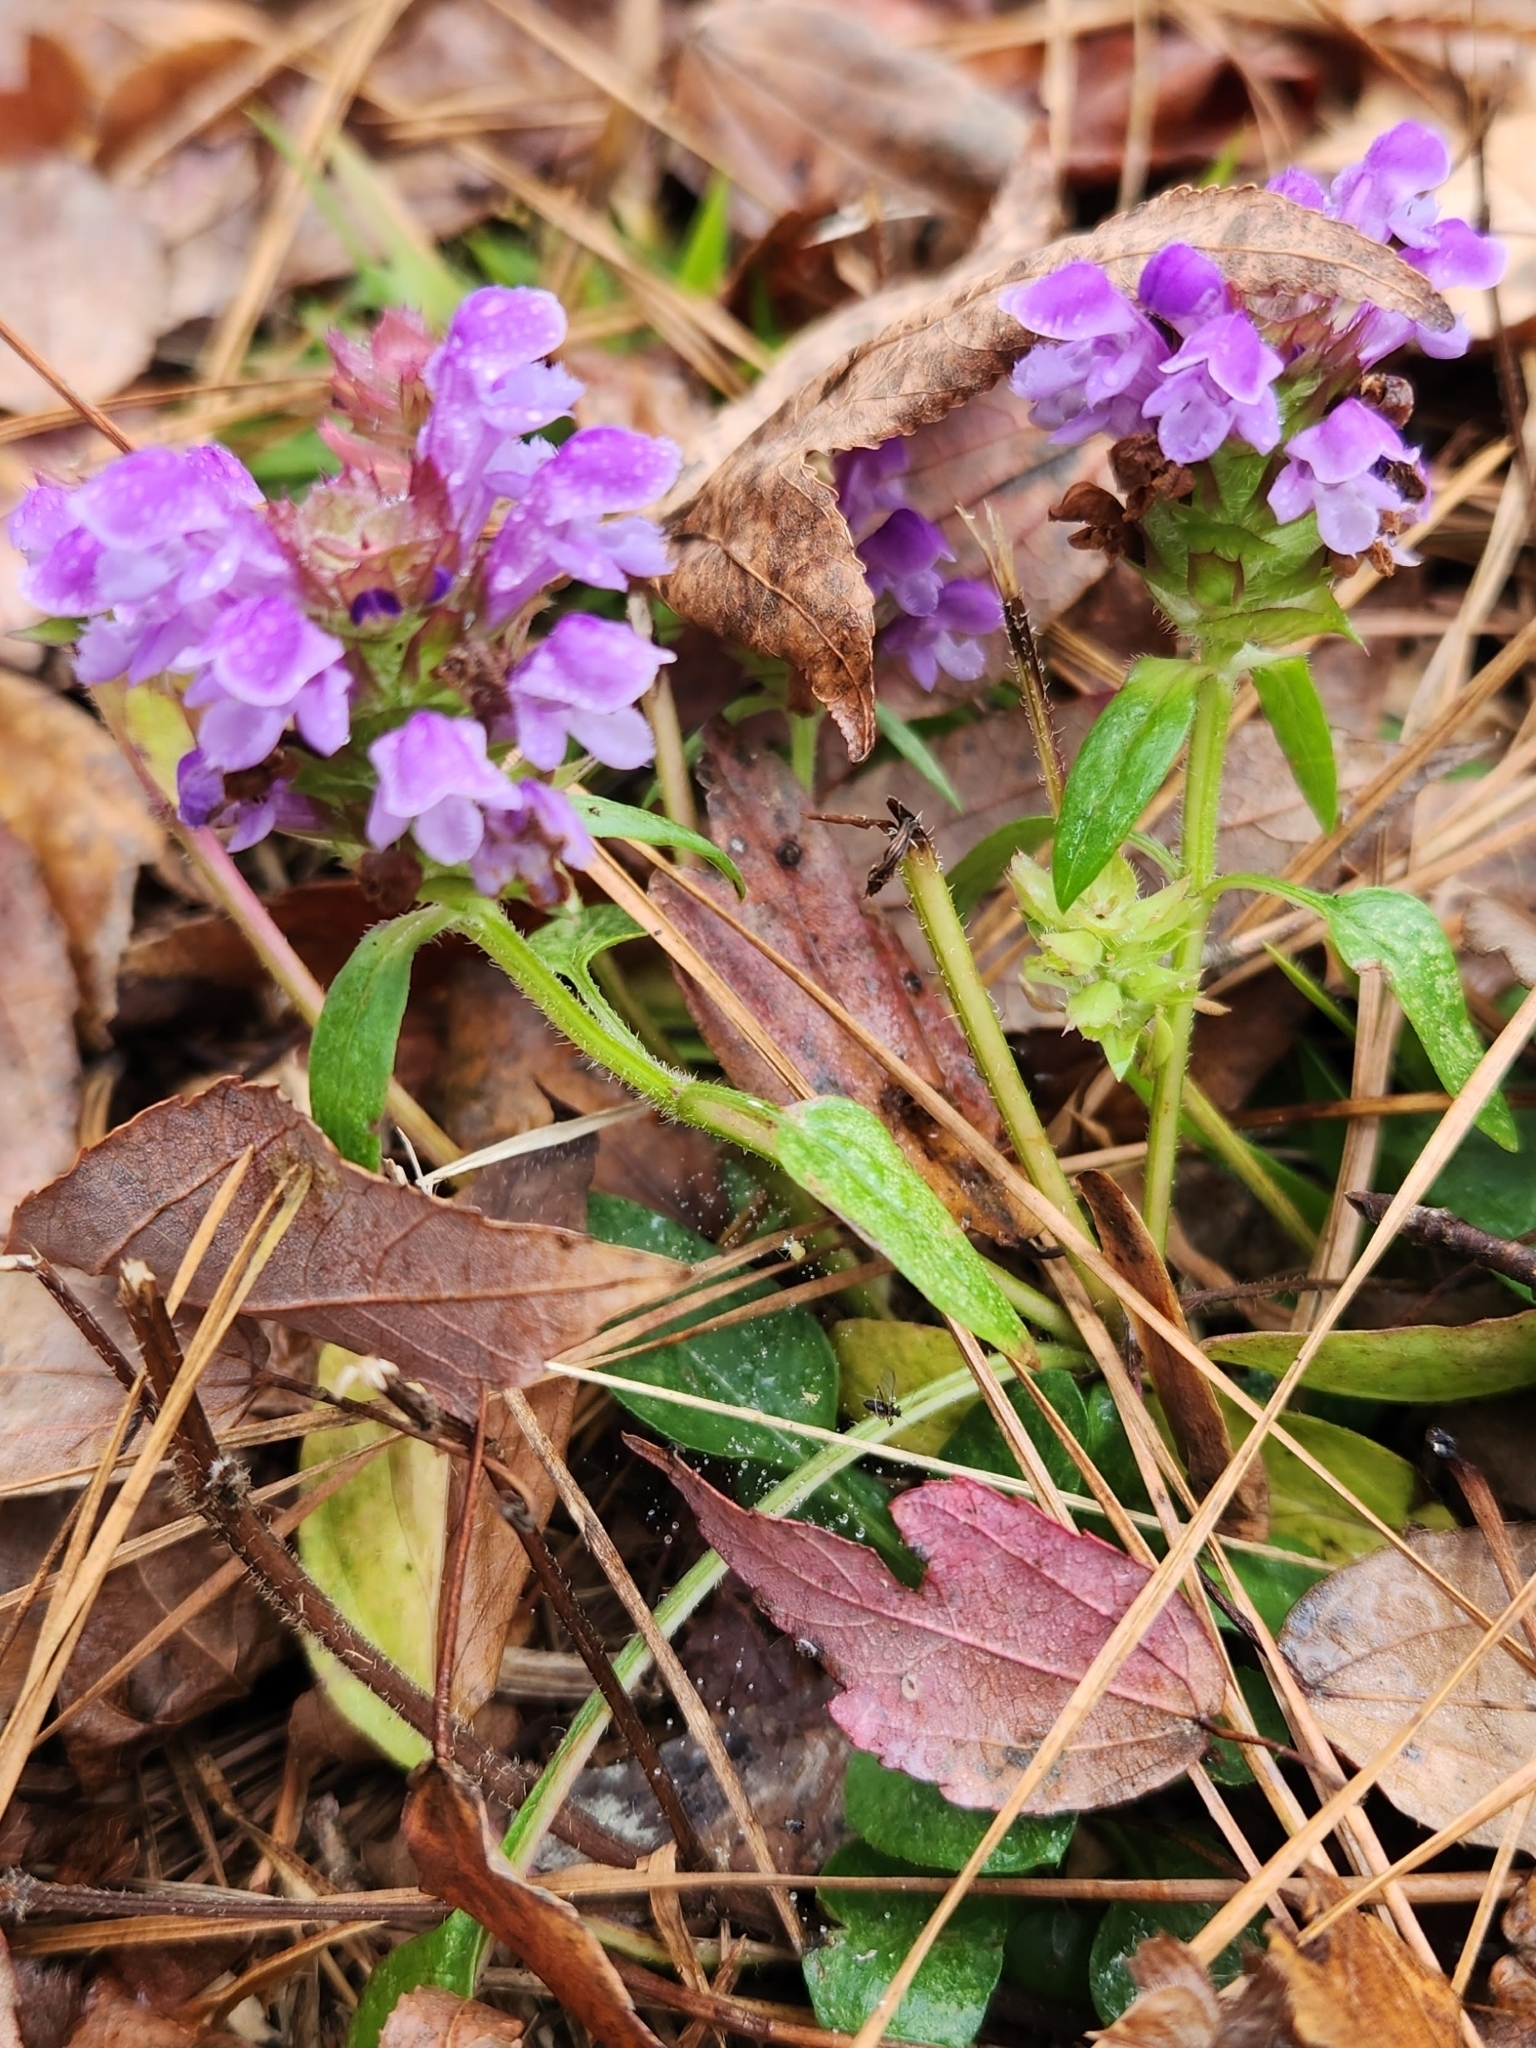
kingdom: Plantae
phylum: Tracheophyta
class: Magnoliopsida
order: Lamiales
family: Lamiaceae
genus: Prunella
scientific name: Prunella vulgaris
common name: Heal-all
